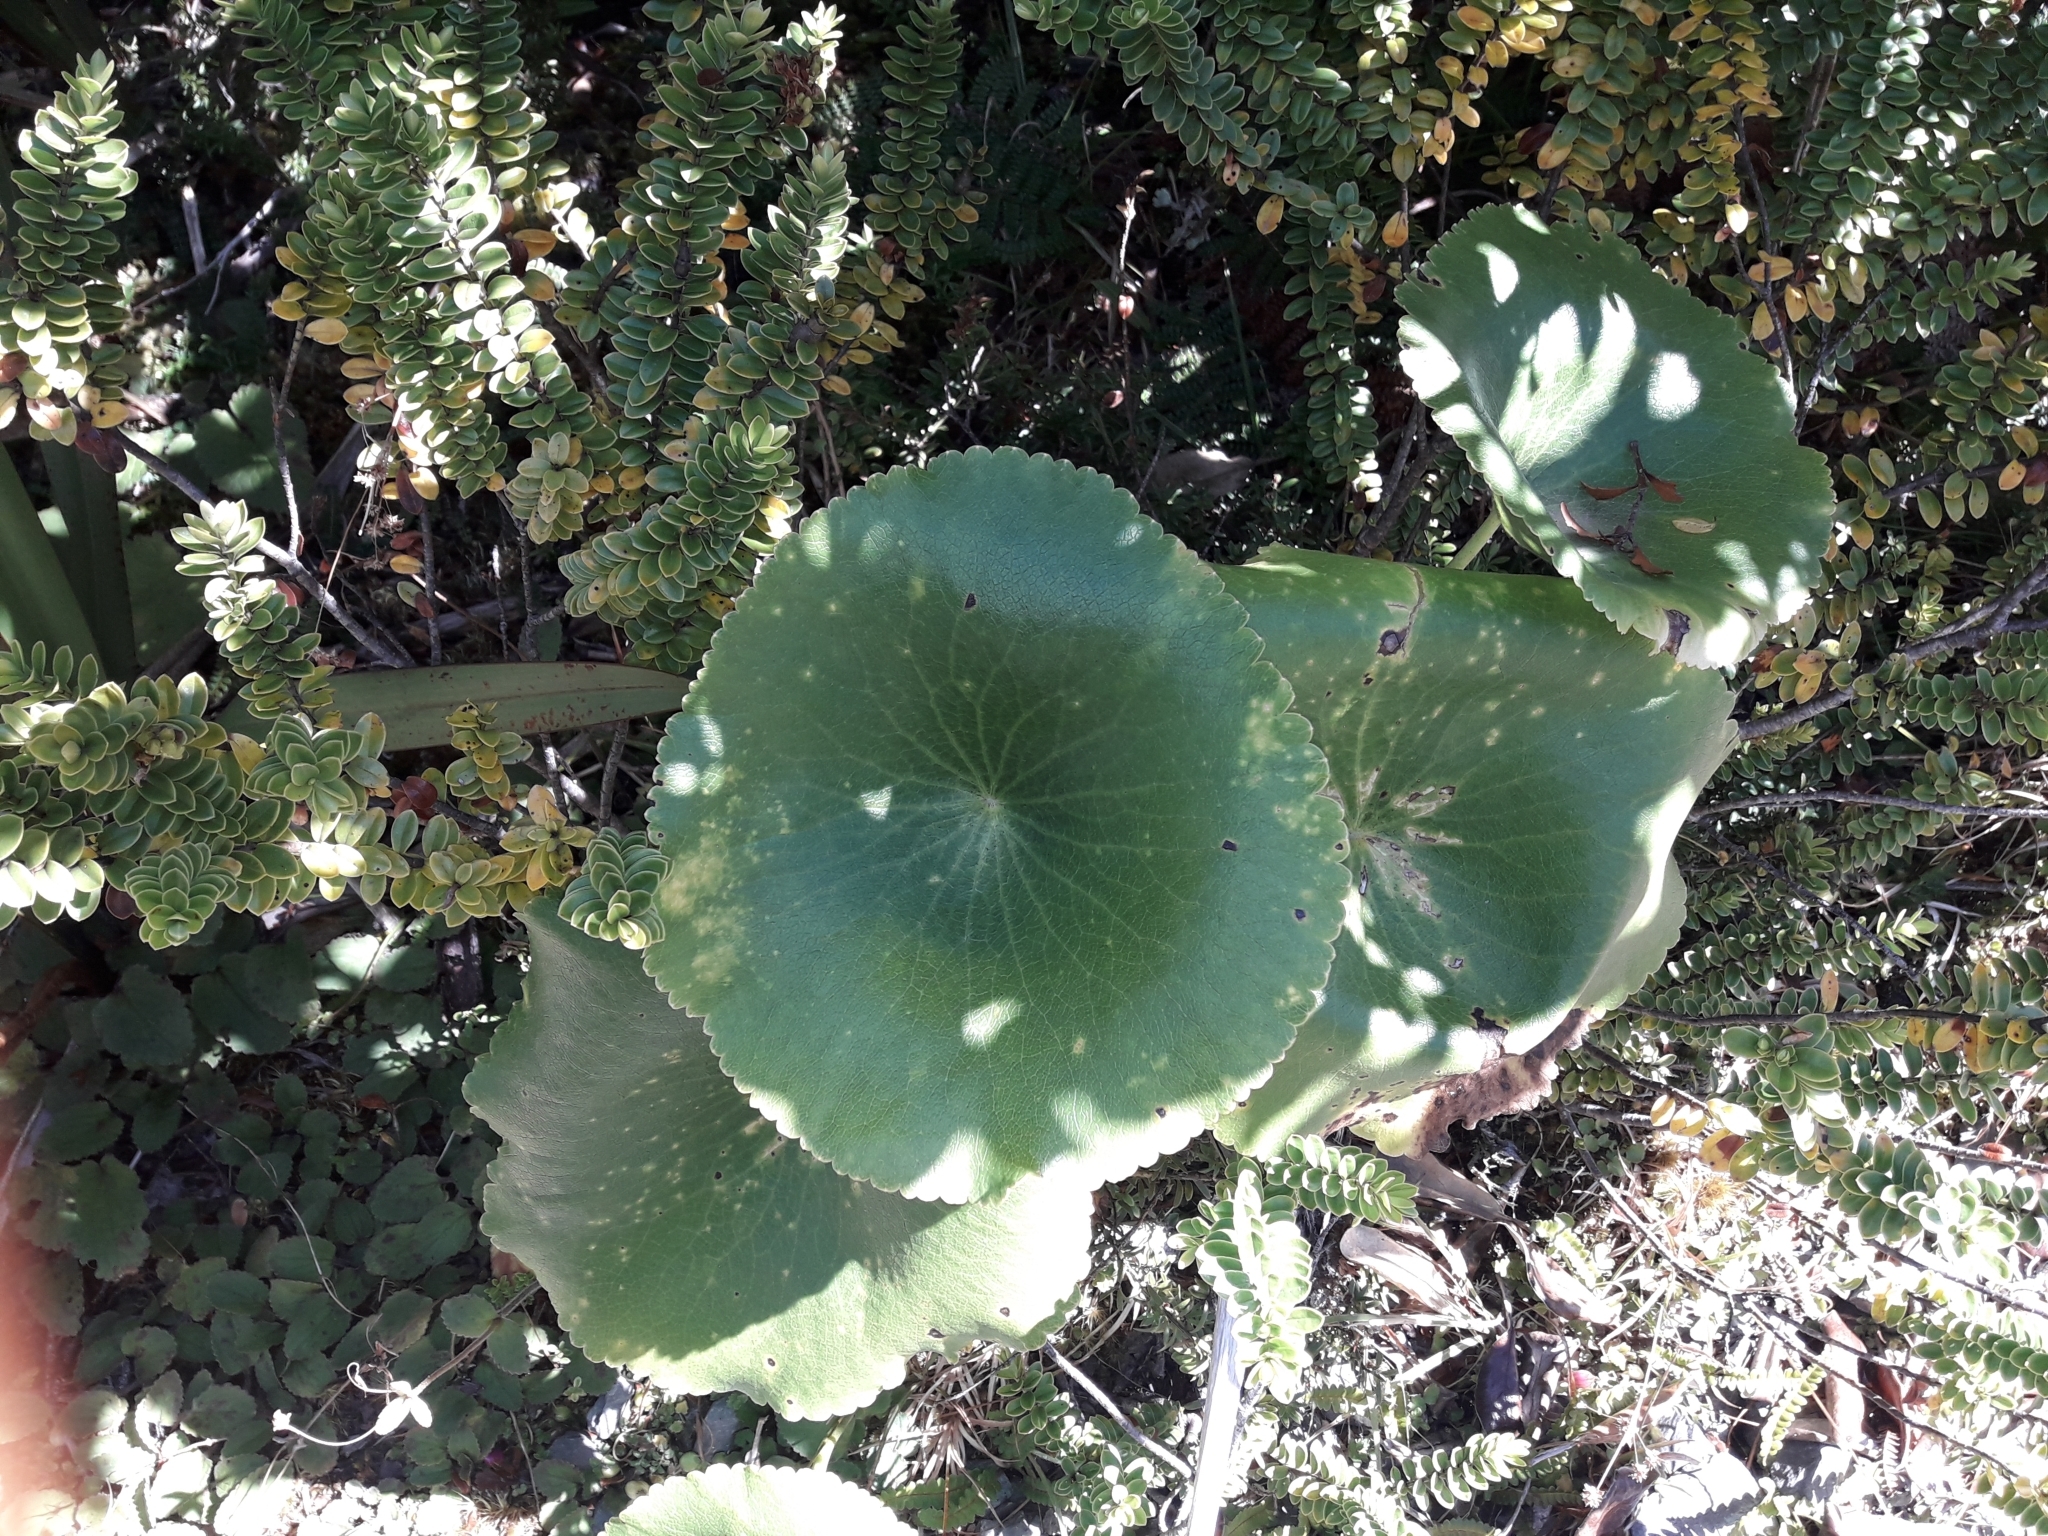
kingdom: Plantae
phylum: Tracheophyta
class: Magnoliopsida
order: Ranunculales
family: Ranunculaceae
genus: Ranunculus
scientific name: Ranunculus lyallii
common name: Mountain-lily
